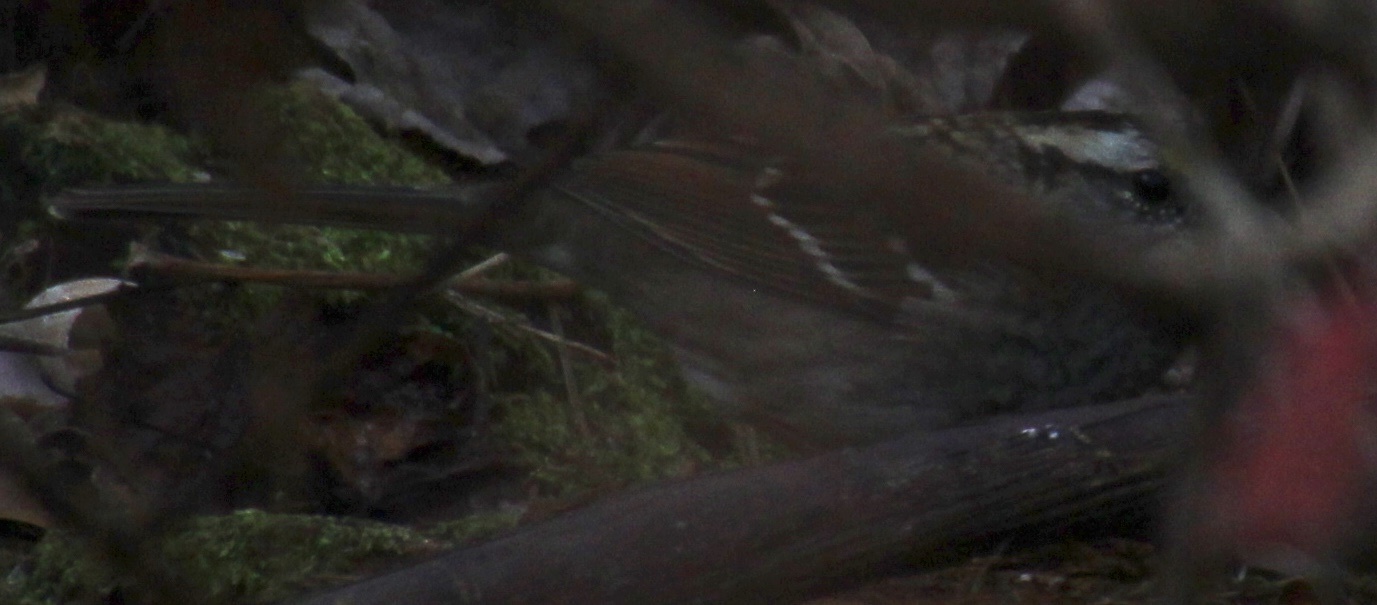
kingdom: Animalia
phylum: Chordata
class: Aves
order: Passeriformes
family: Passerellidae
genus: Zonotrichia
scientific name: Zonotrichia albicollis
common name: White-throated sparrow
